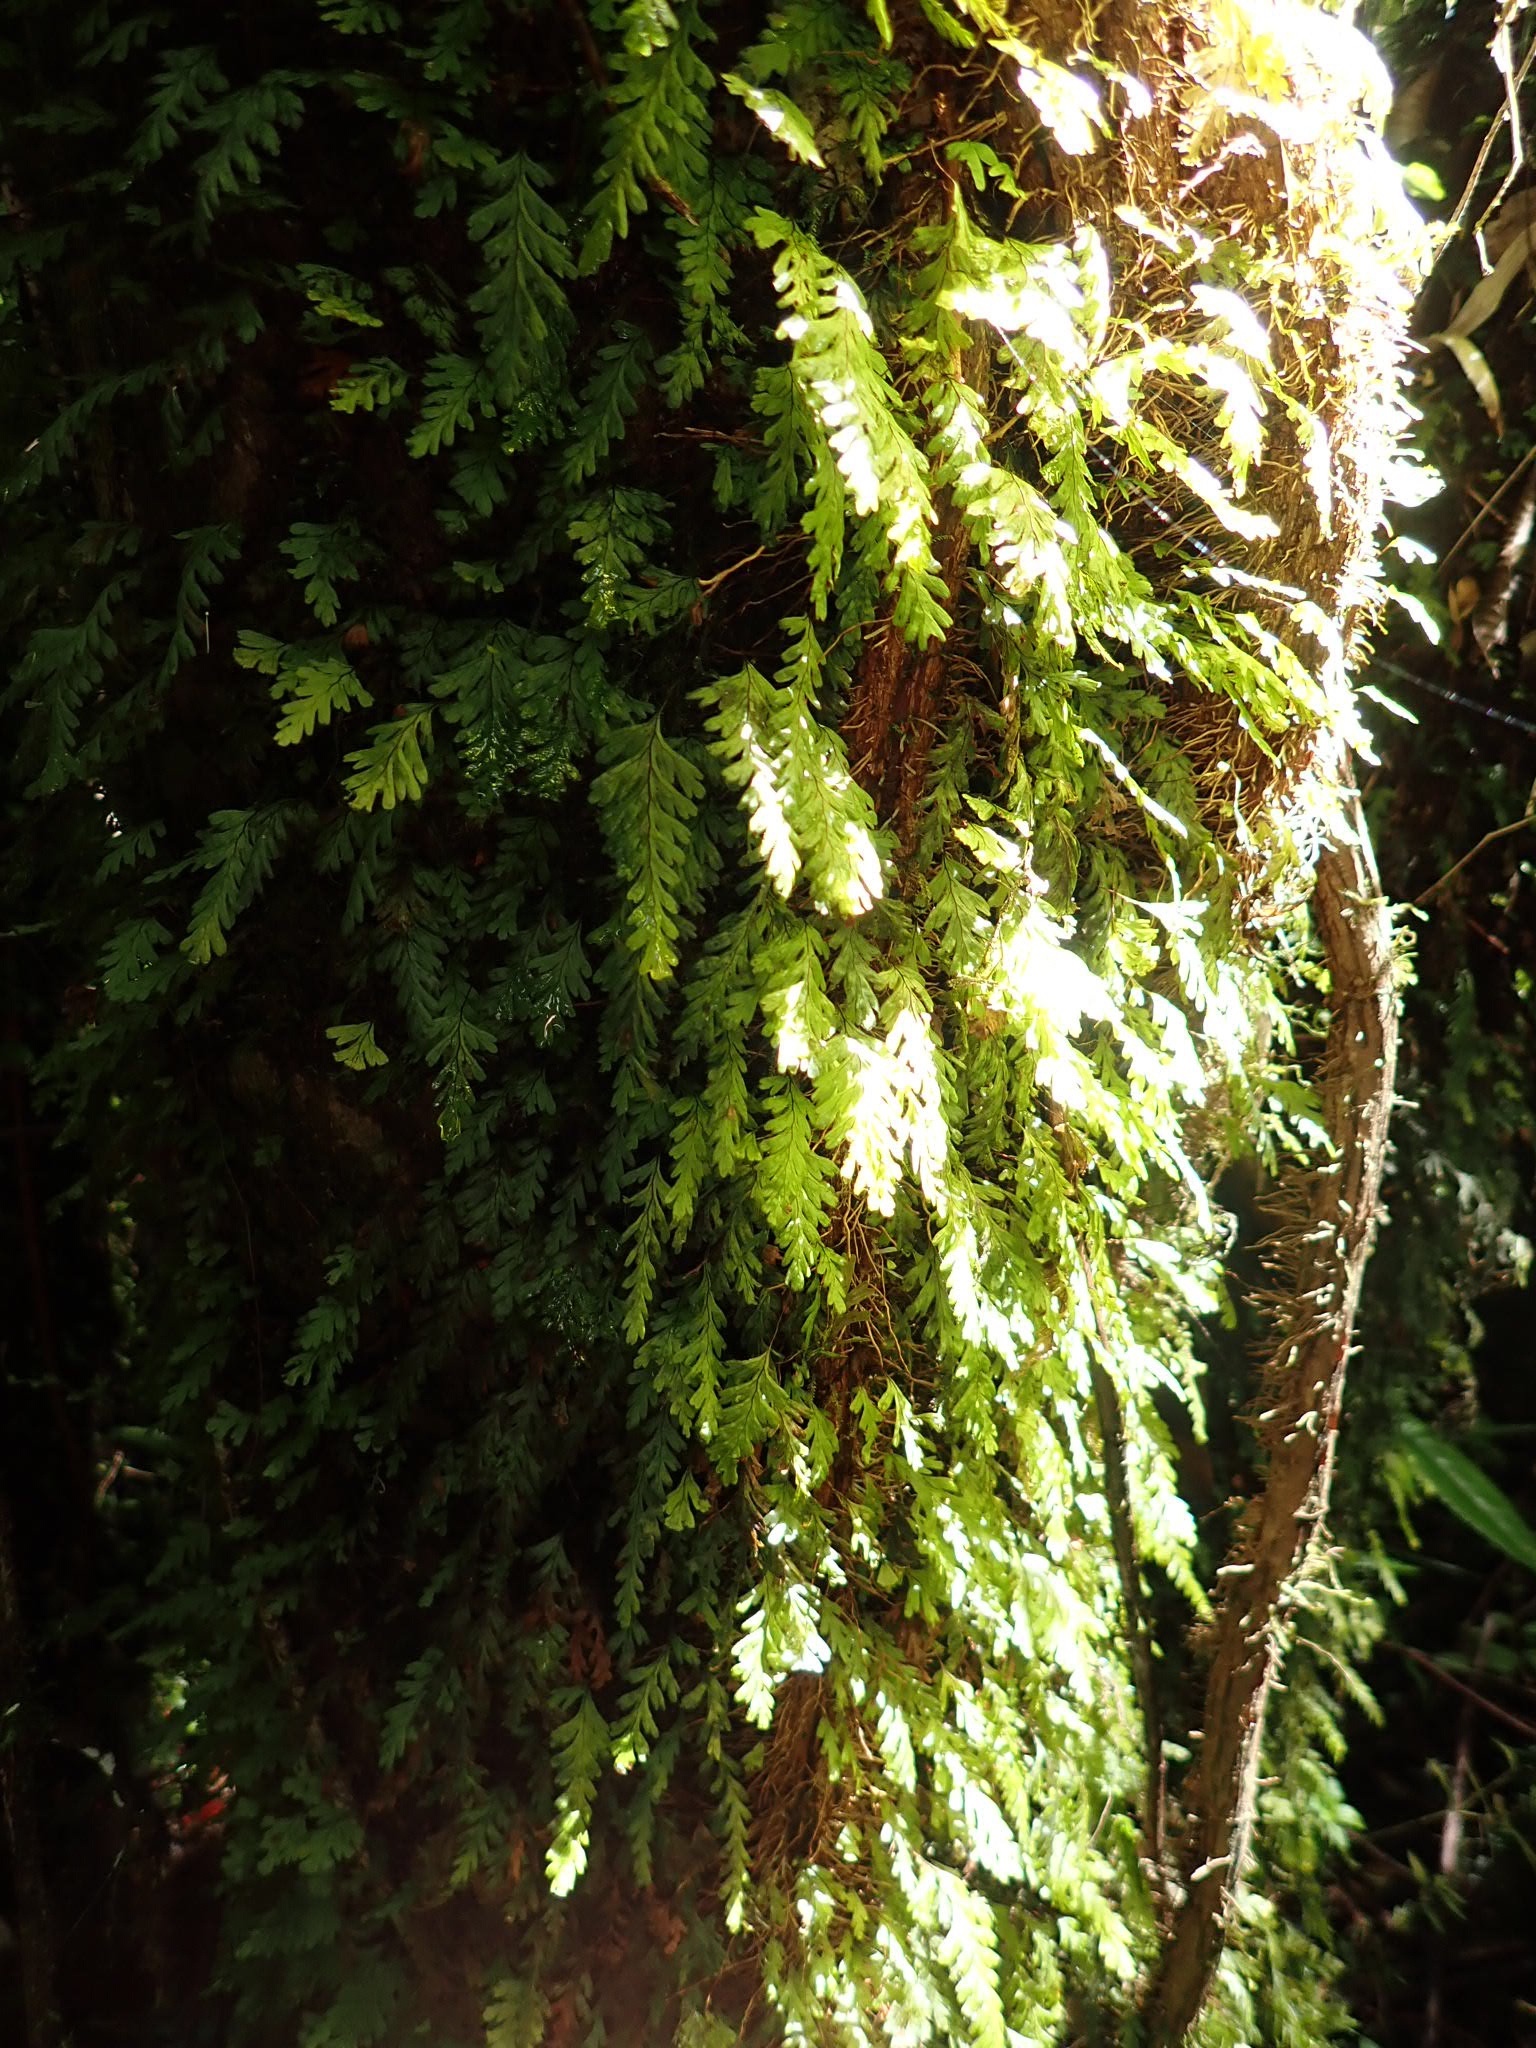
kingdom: Plantae
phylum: Tracheophyta
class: Polypodiopsida
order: Hymenophyllales
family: Hymenophyllaceae
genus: Hymenophyllum
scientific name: Hymenophyllum dicranotrichum
